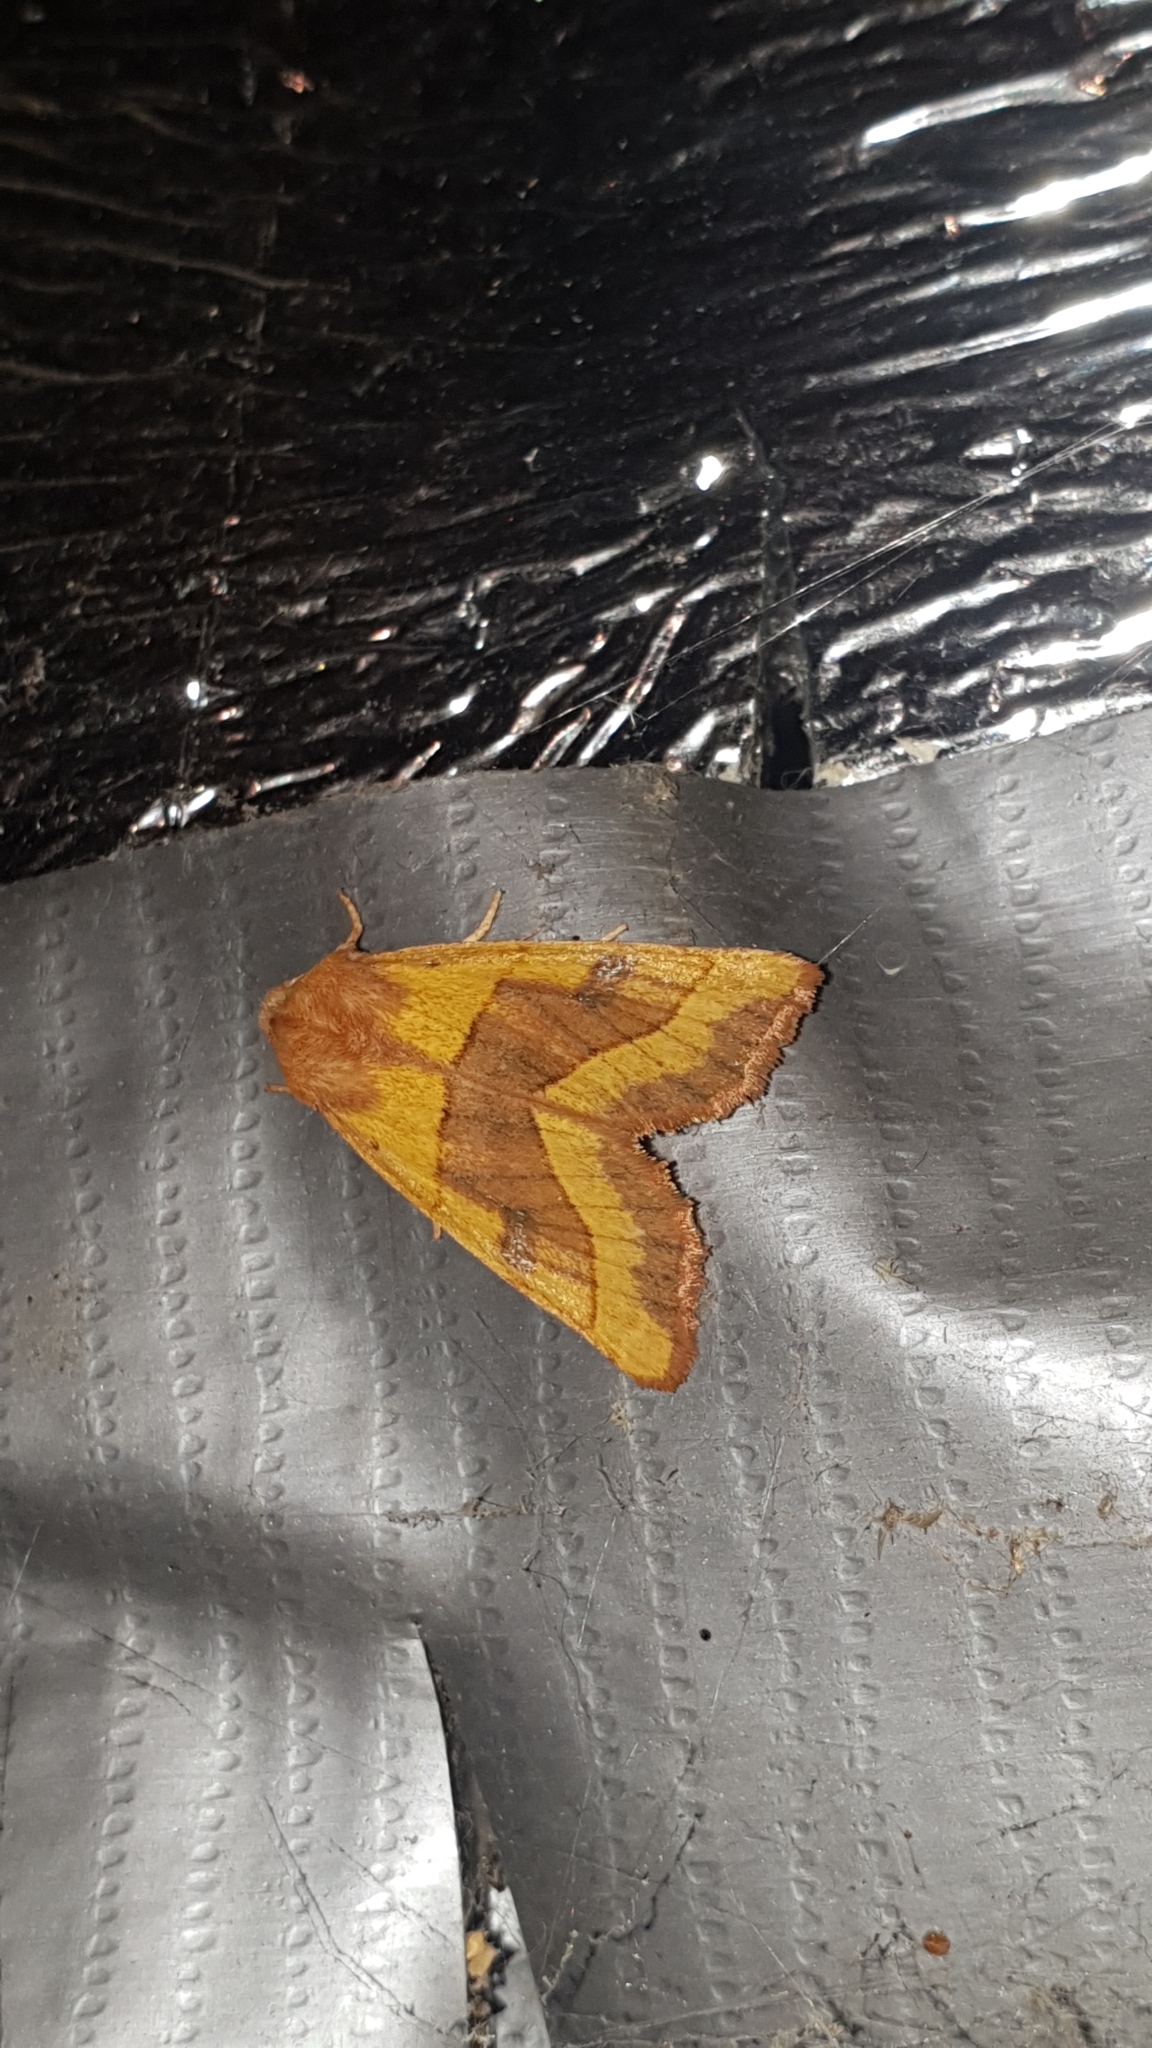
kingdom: Animalia
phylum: Arthropoda
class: Insecta
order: Lepidoptera
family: Noctuidae
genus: Atethmia
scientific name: Atethmia centrago
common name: Centre-barred sallow
